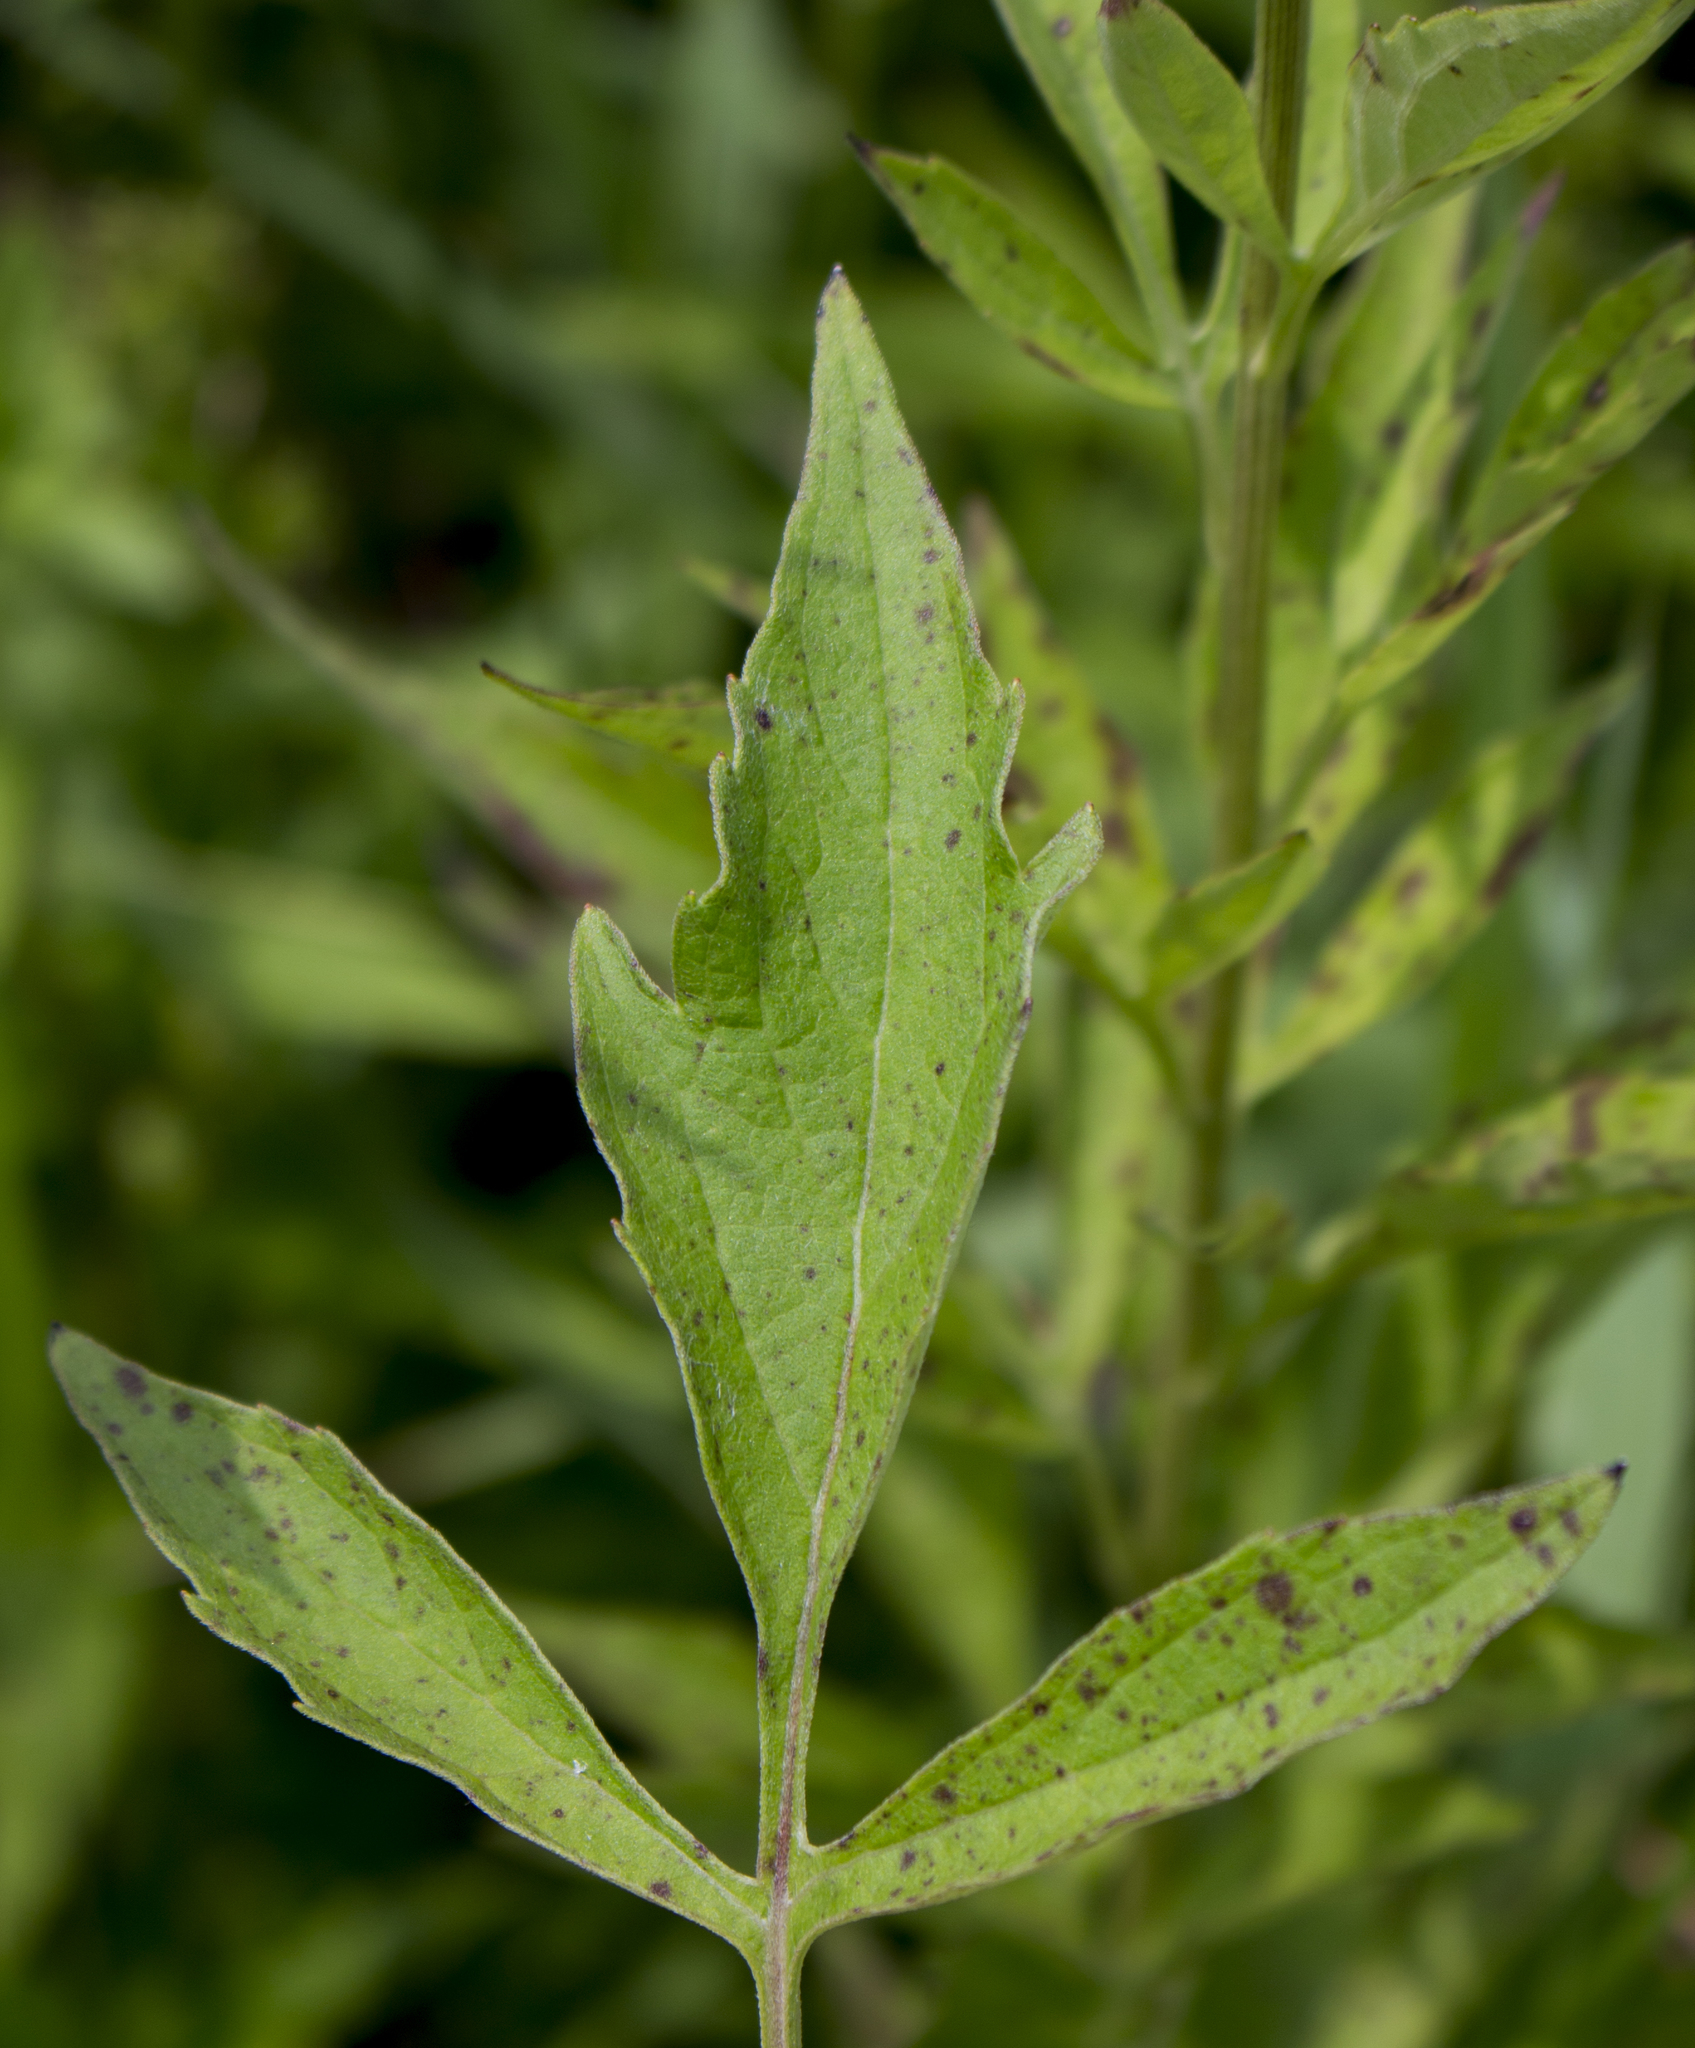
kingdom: Plantae
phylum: Tracheophyta
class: Magnoliopsida
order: Asterales
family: Asteraceae
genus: Rudbeckia
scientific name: Rudbeckia subtomentosa
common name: Sweet coneflower
